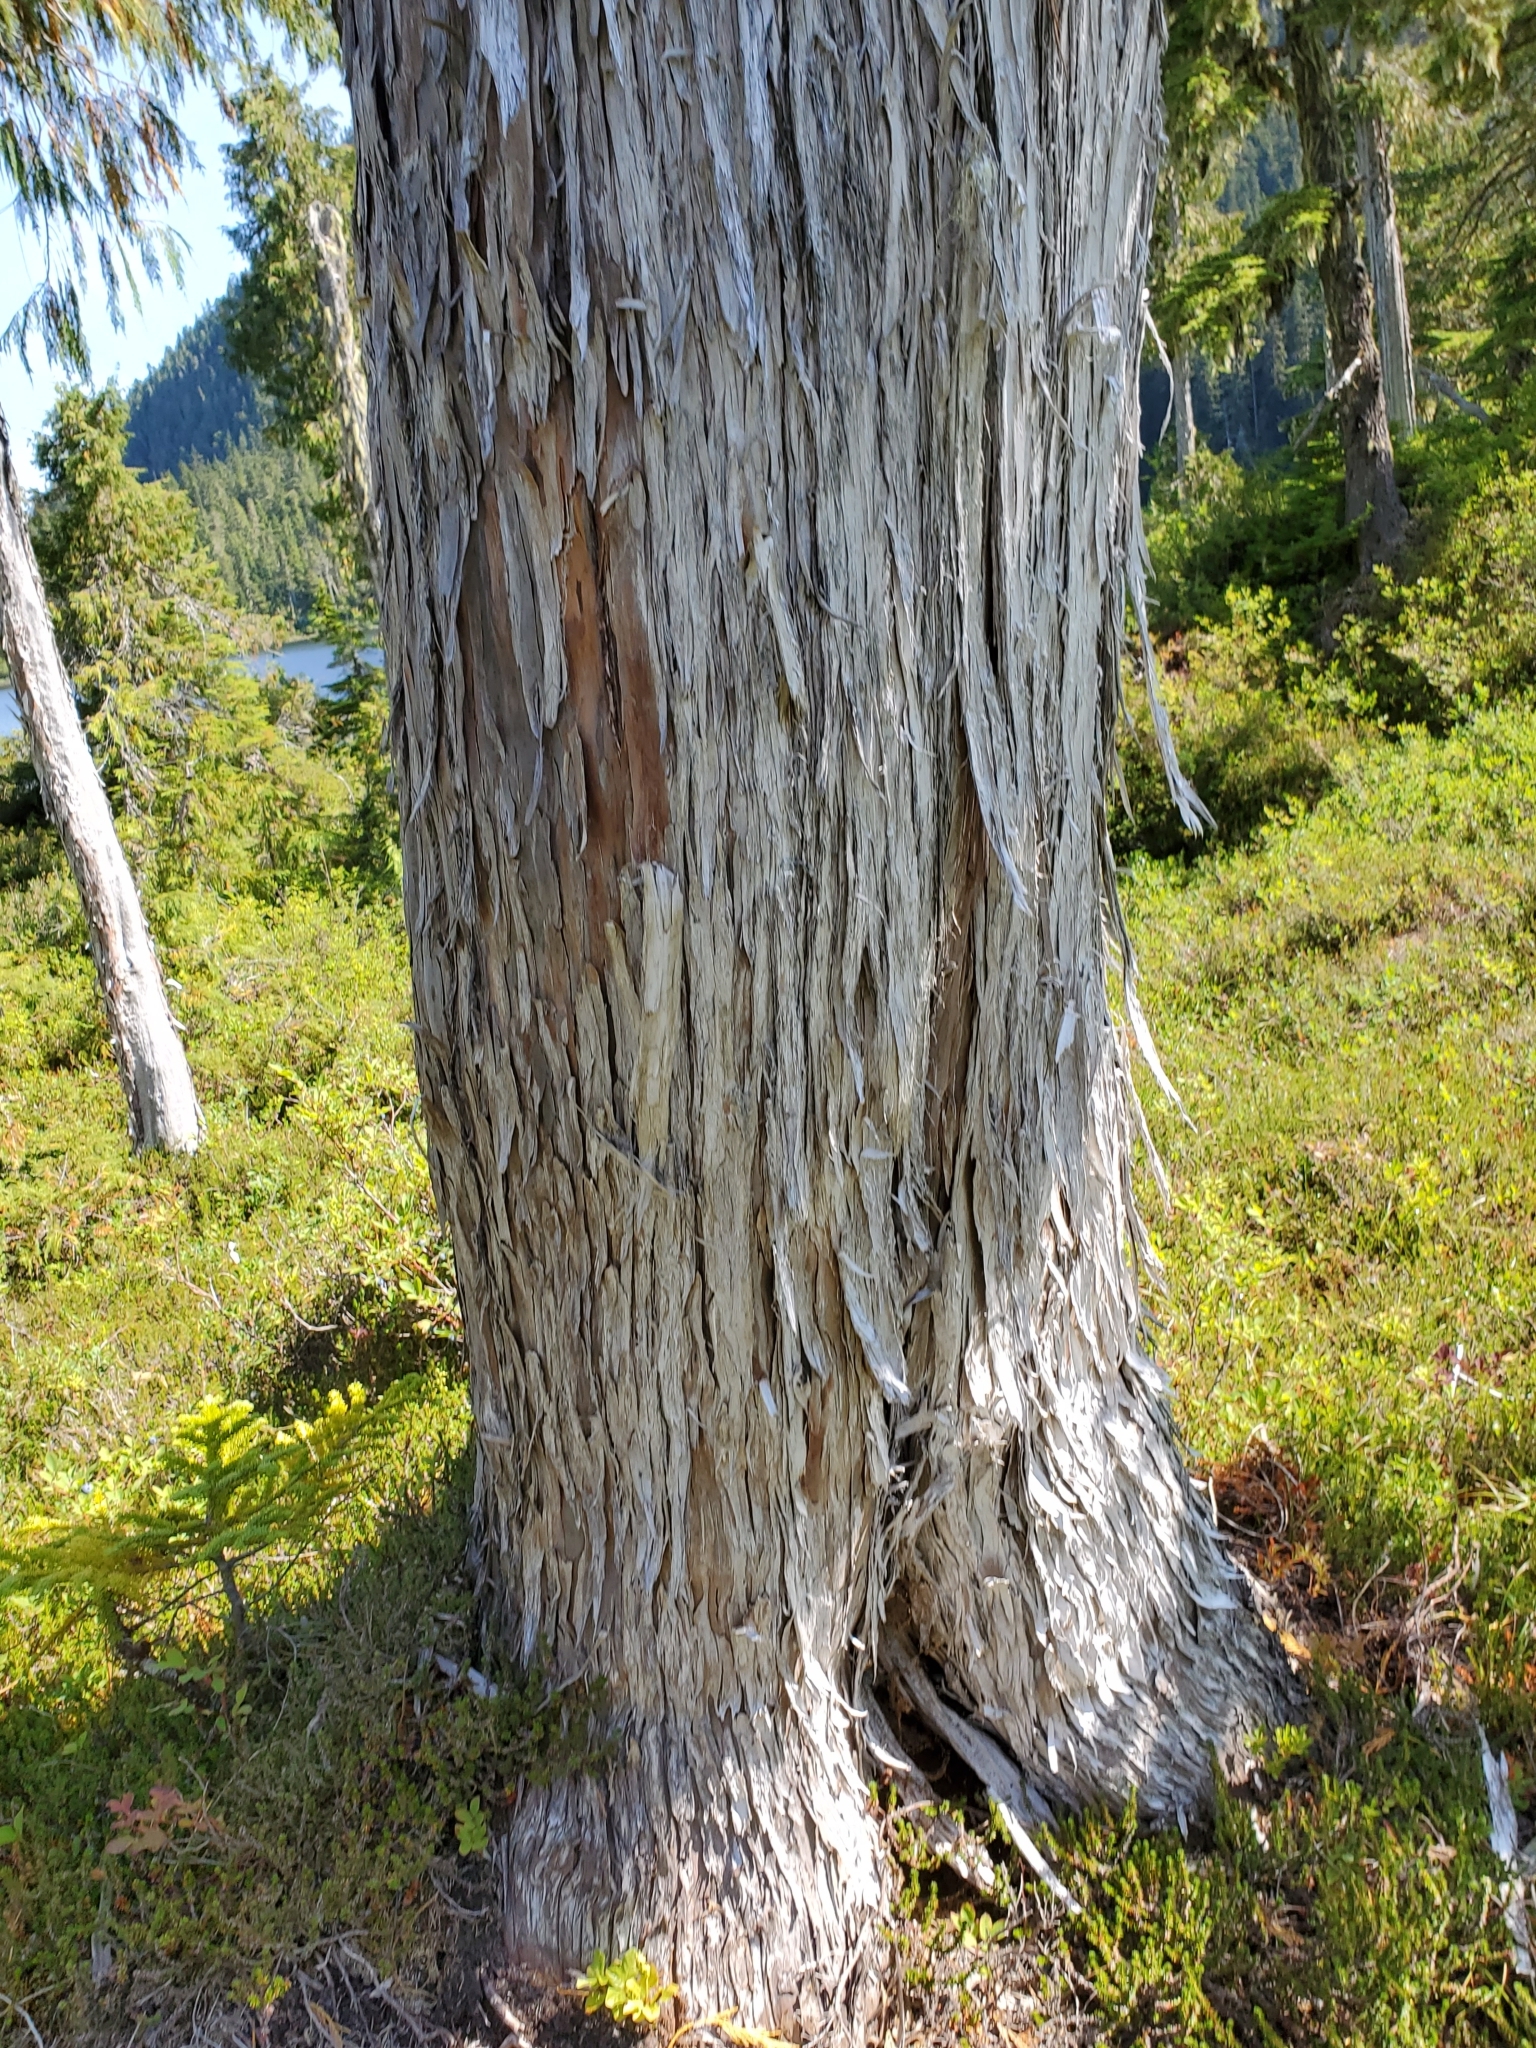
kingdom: Plantae
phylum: Tracheophyta
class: Pinopsida
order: Pinales
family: Cupressaceae
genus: Xanthocyparis
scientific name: Xanthocyparis nootkatensis
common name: Nootka cypress
